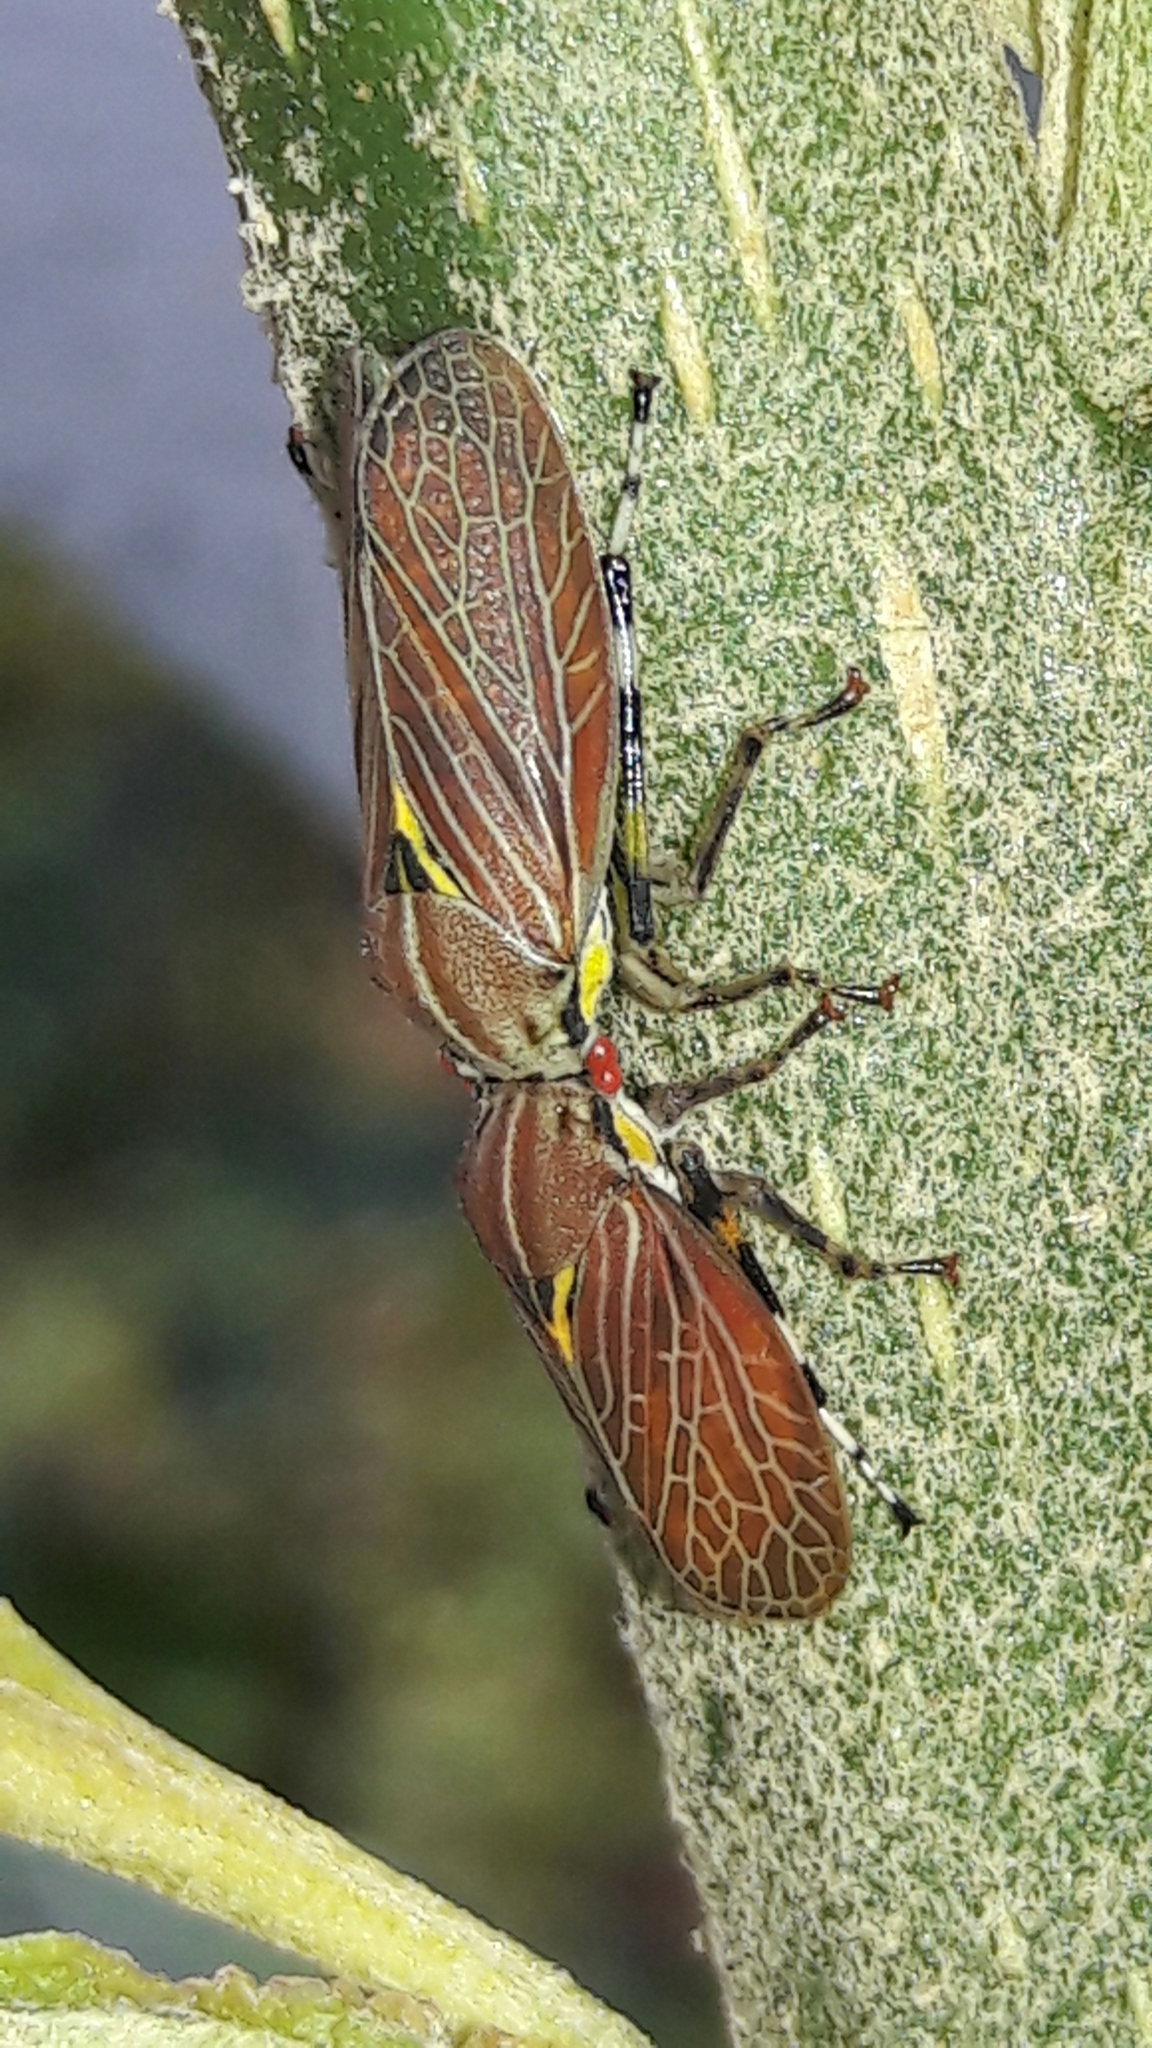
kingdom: Animalia
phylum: Arthropoda
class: Insecta
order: Hemiptera
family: Aetalionidae
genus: Aetalion
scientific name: Aetalion reticulatum
